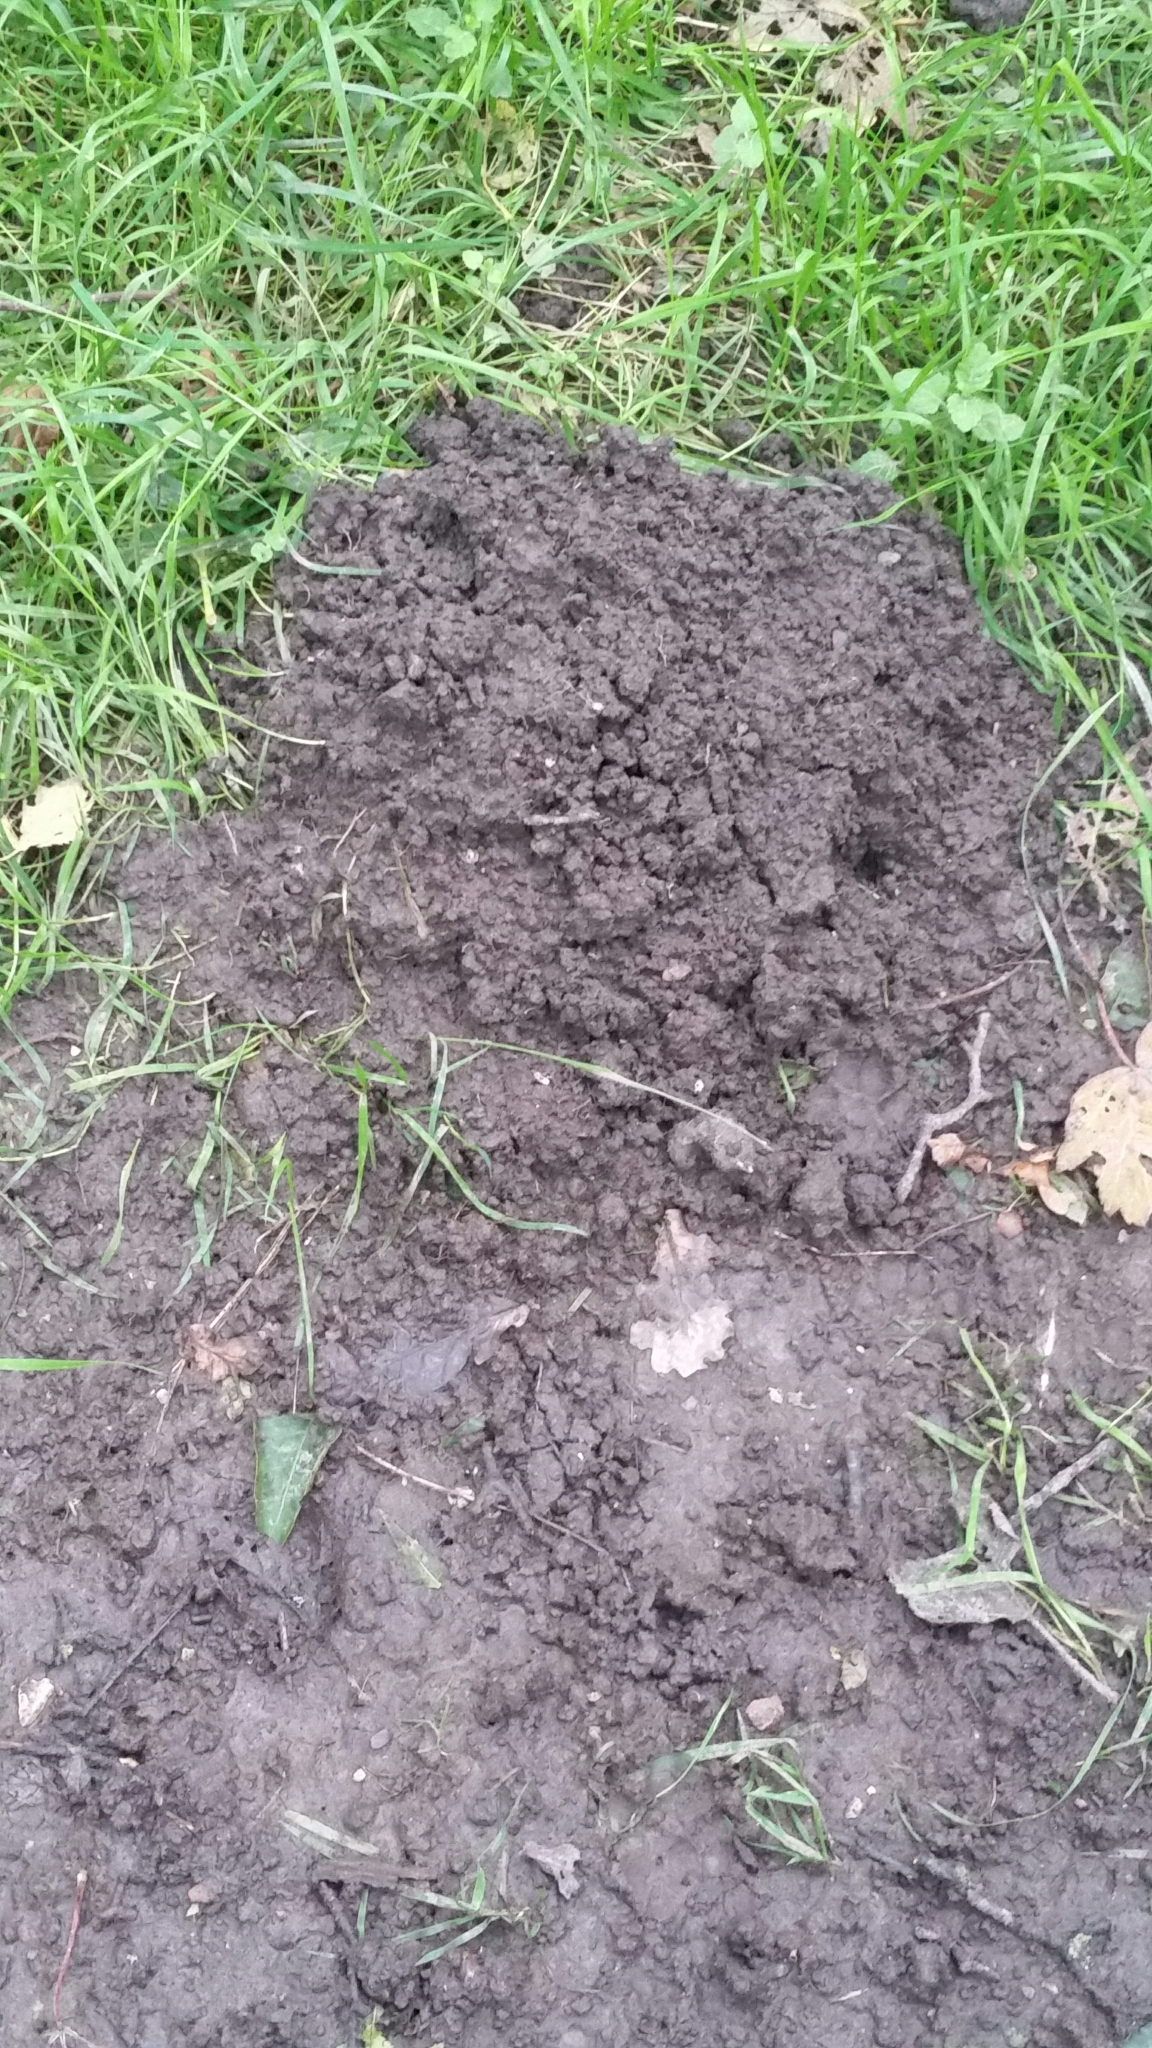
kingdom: Animalia
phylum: Chordata
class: Mammalia
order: Soricomorpha
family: Talpidae
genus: Talpa
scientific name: Talpa europaea
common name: European mole
